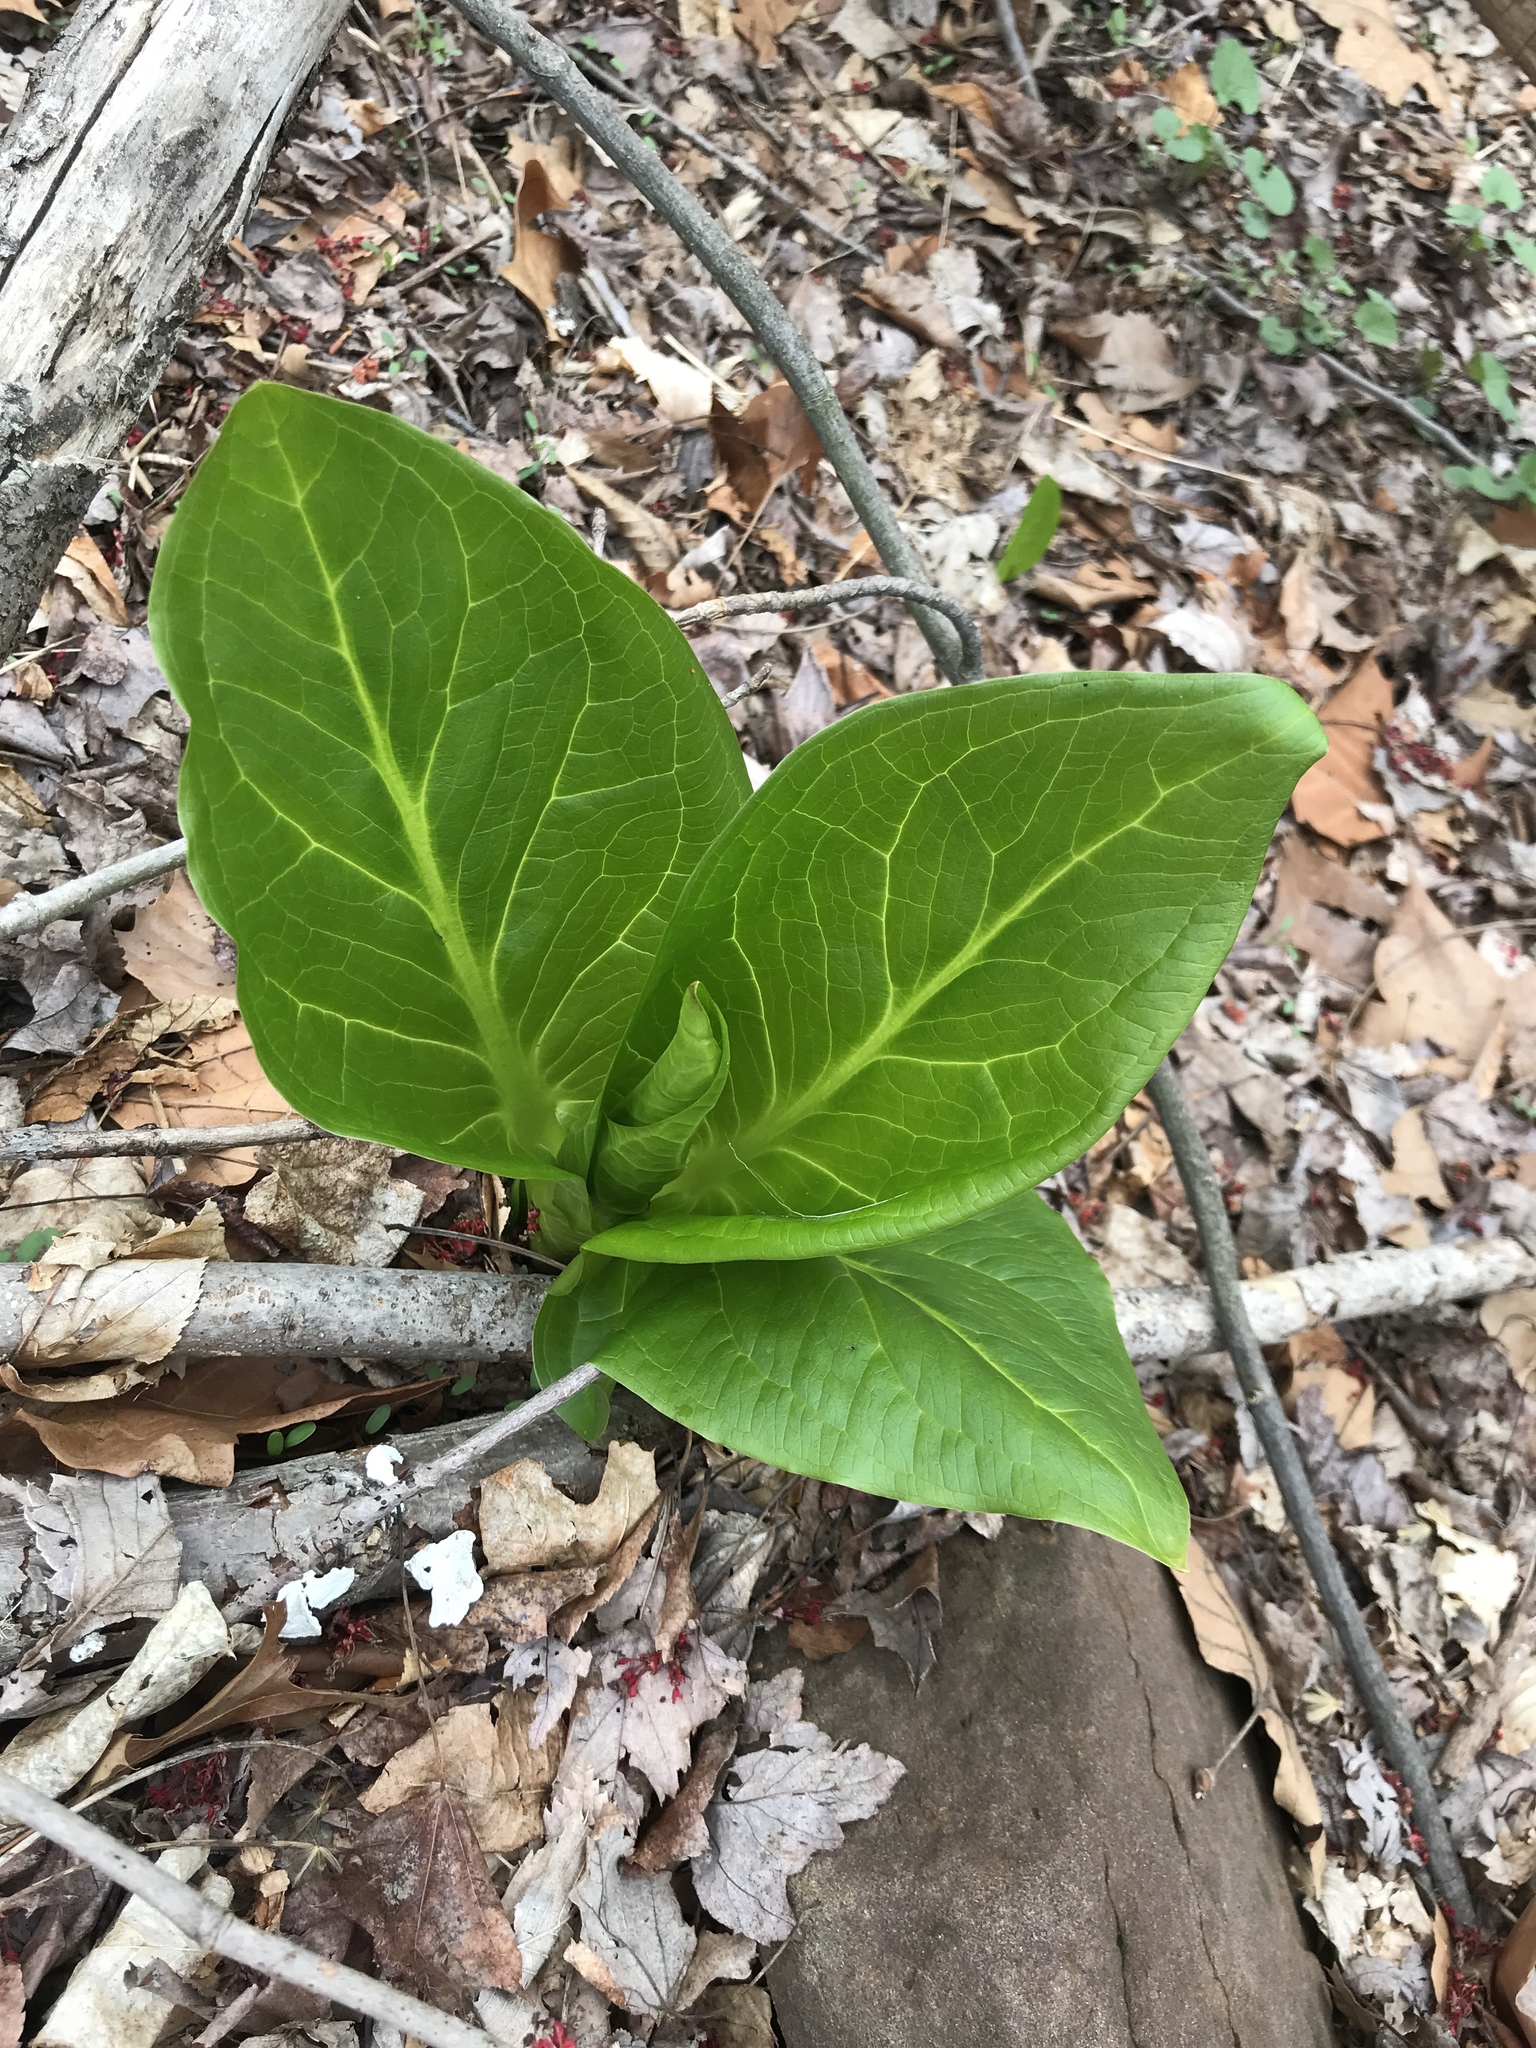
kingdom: Plantae
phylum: Tracheophyta
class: Liliopsida
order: Alismatales
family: Araceae
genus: Symplocarpus
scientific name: Symplocarpus foetidus
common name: Eastern skunk cabbage
